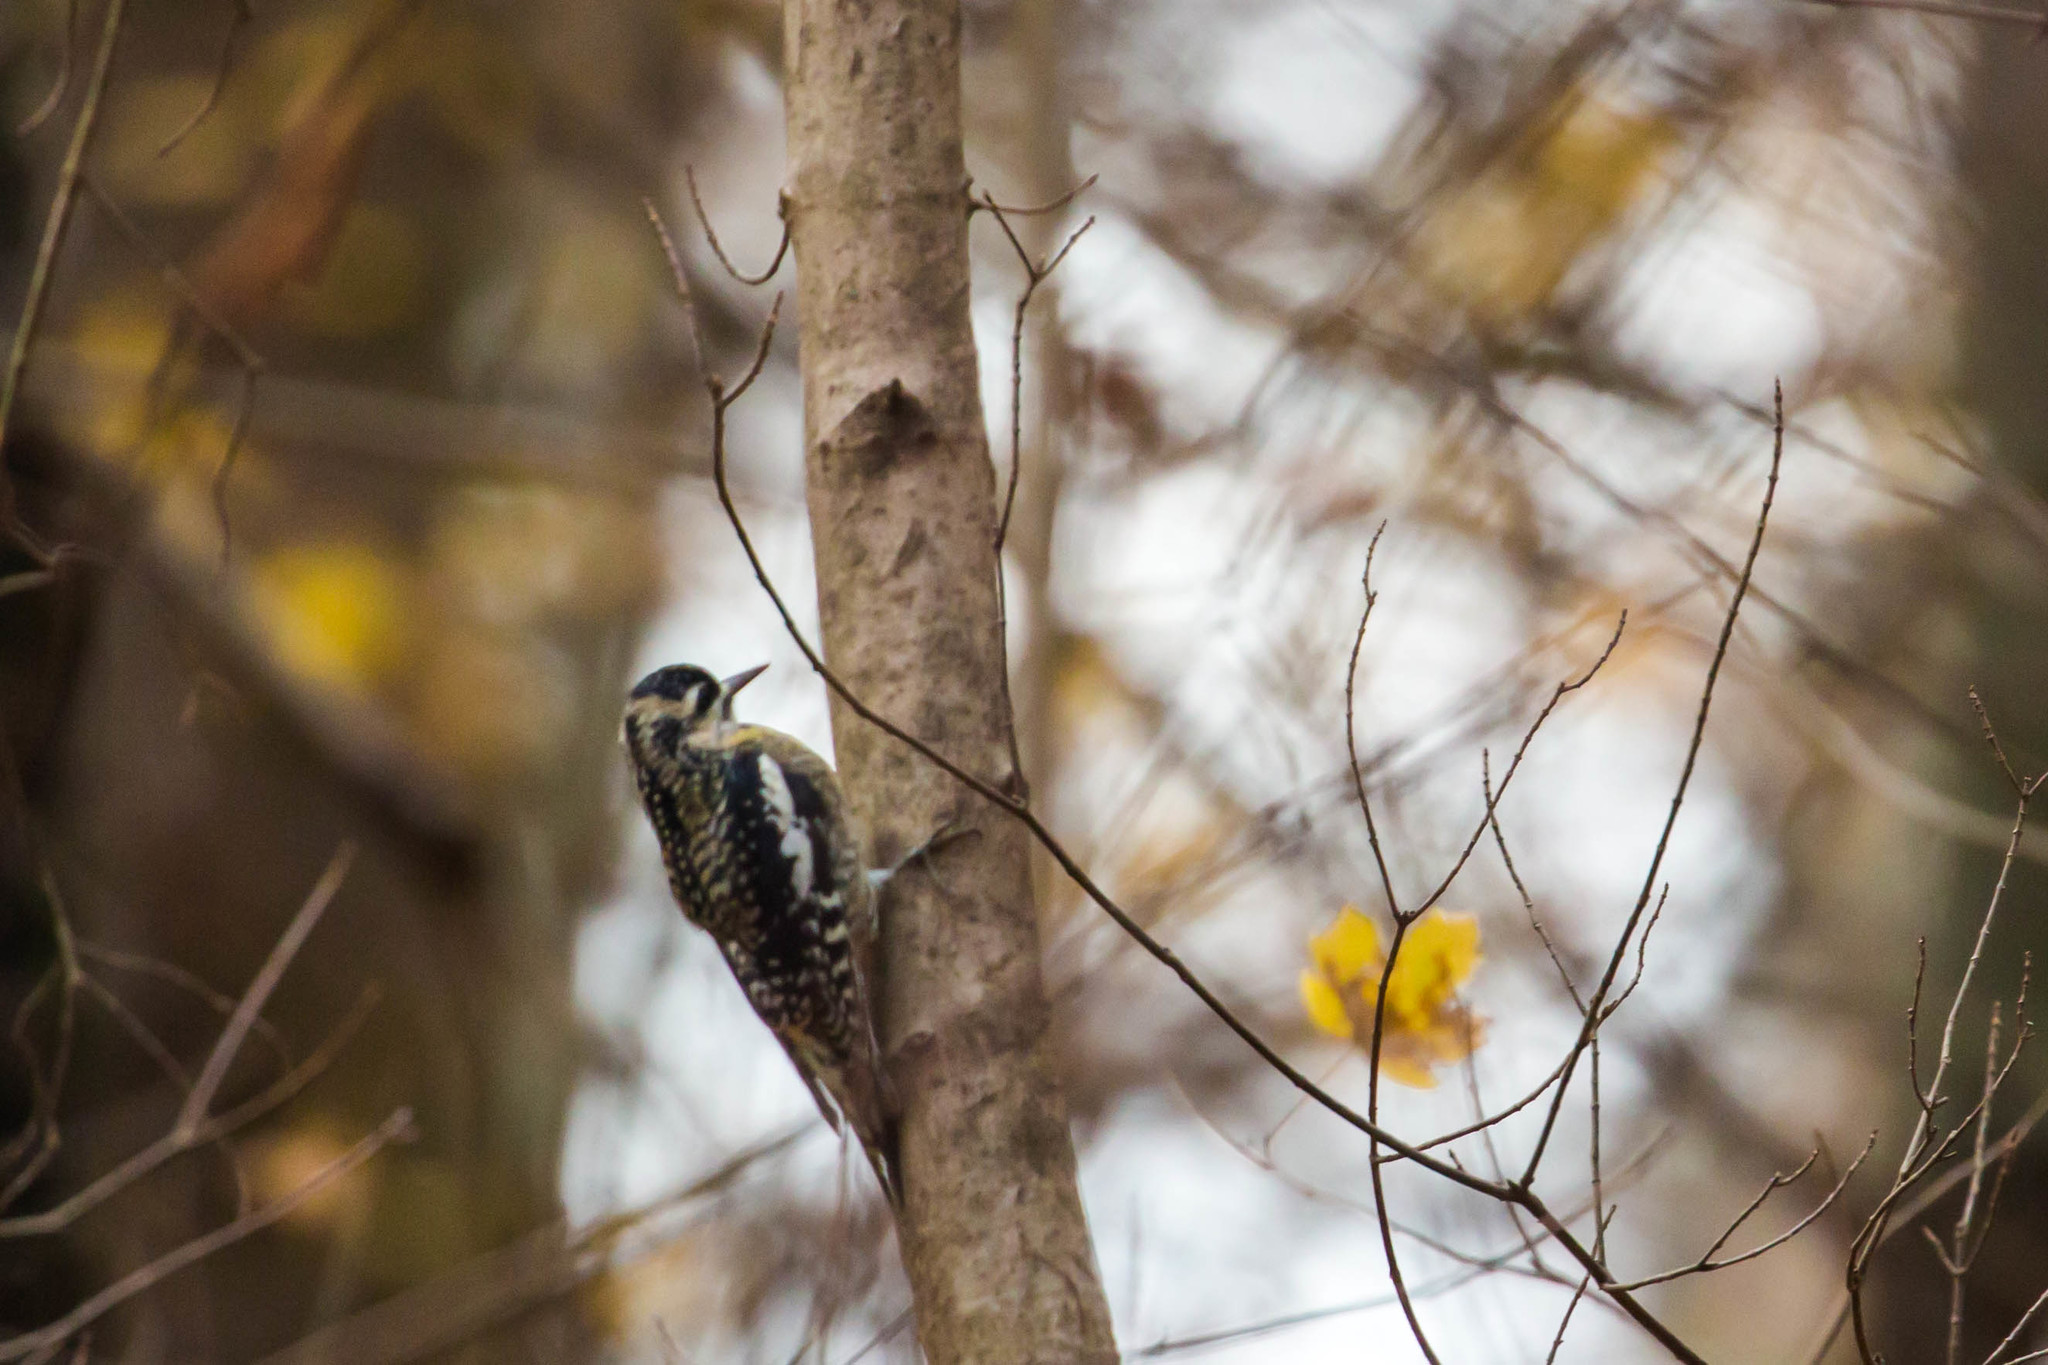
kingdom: Animalia
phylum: Chordata
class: Aves
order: Piciformes
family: Picidae
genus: Sphyrapicus
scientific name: Sphyrapicus varius
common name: Yellow-bellied sapsucker
